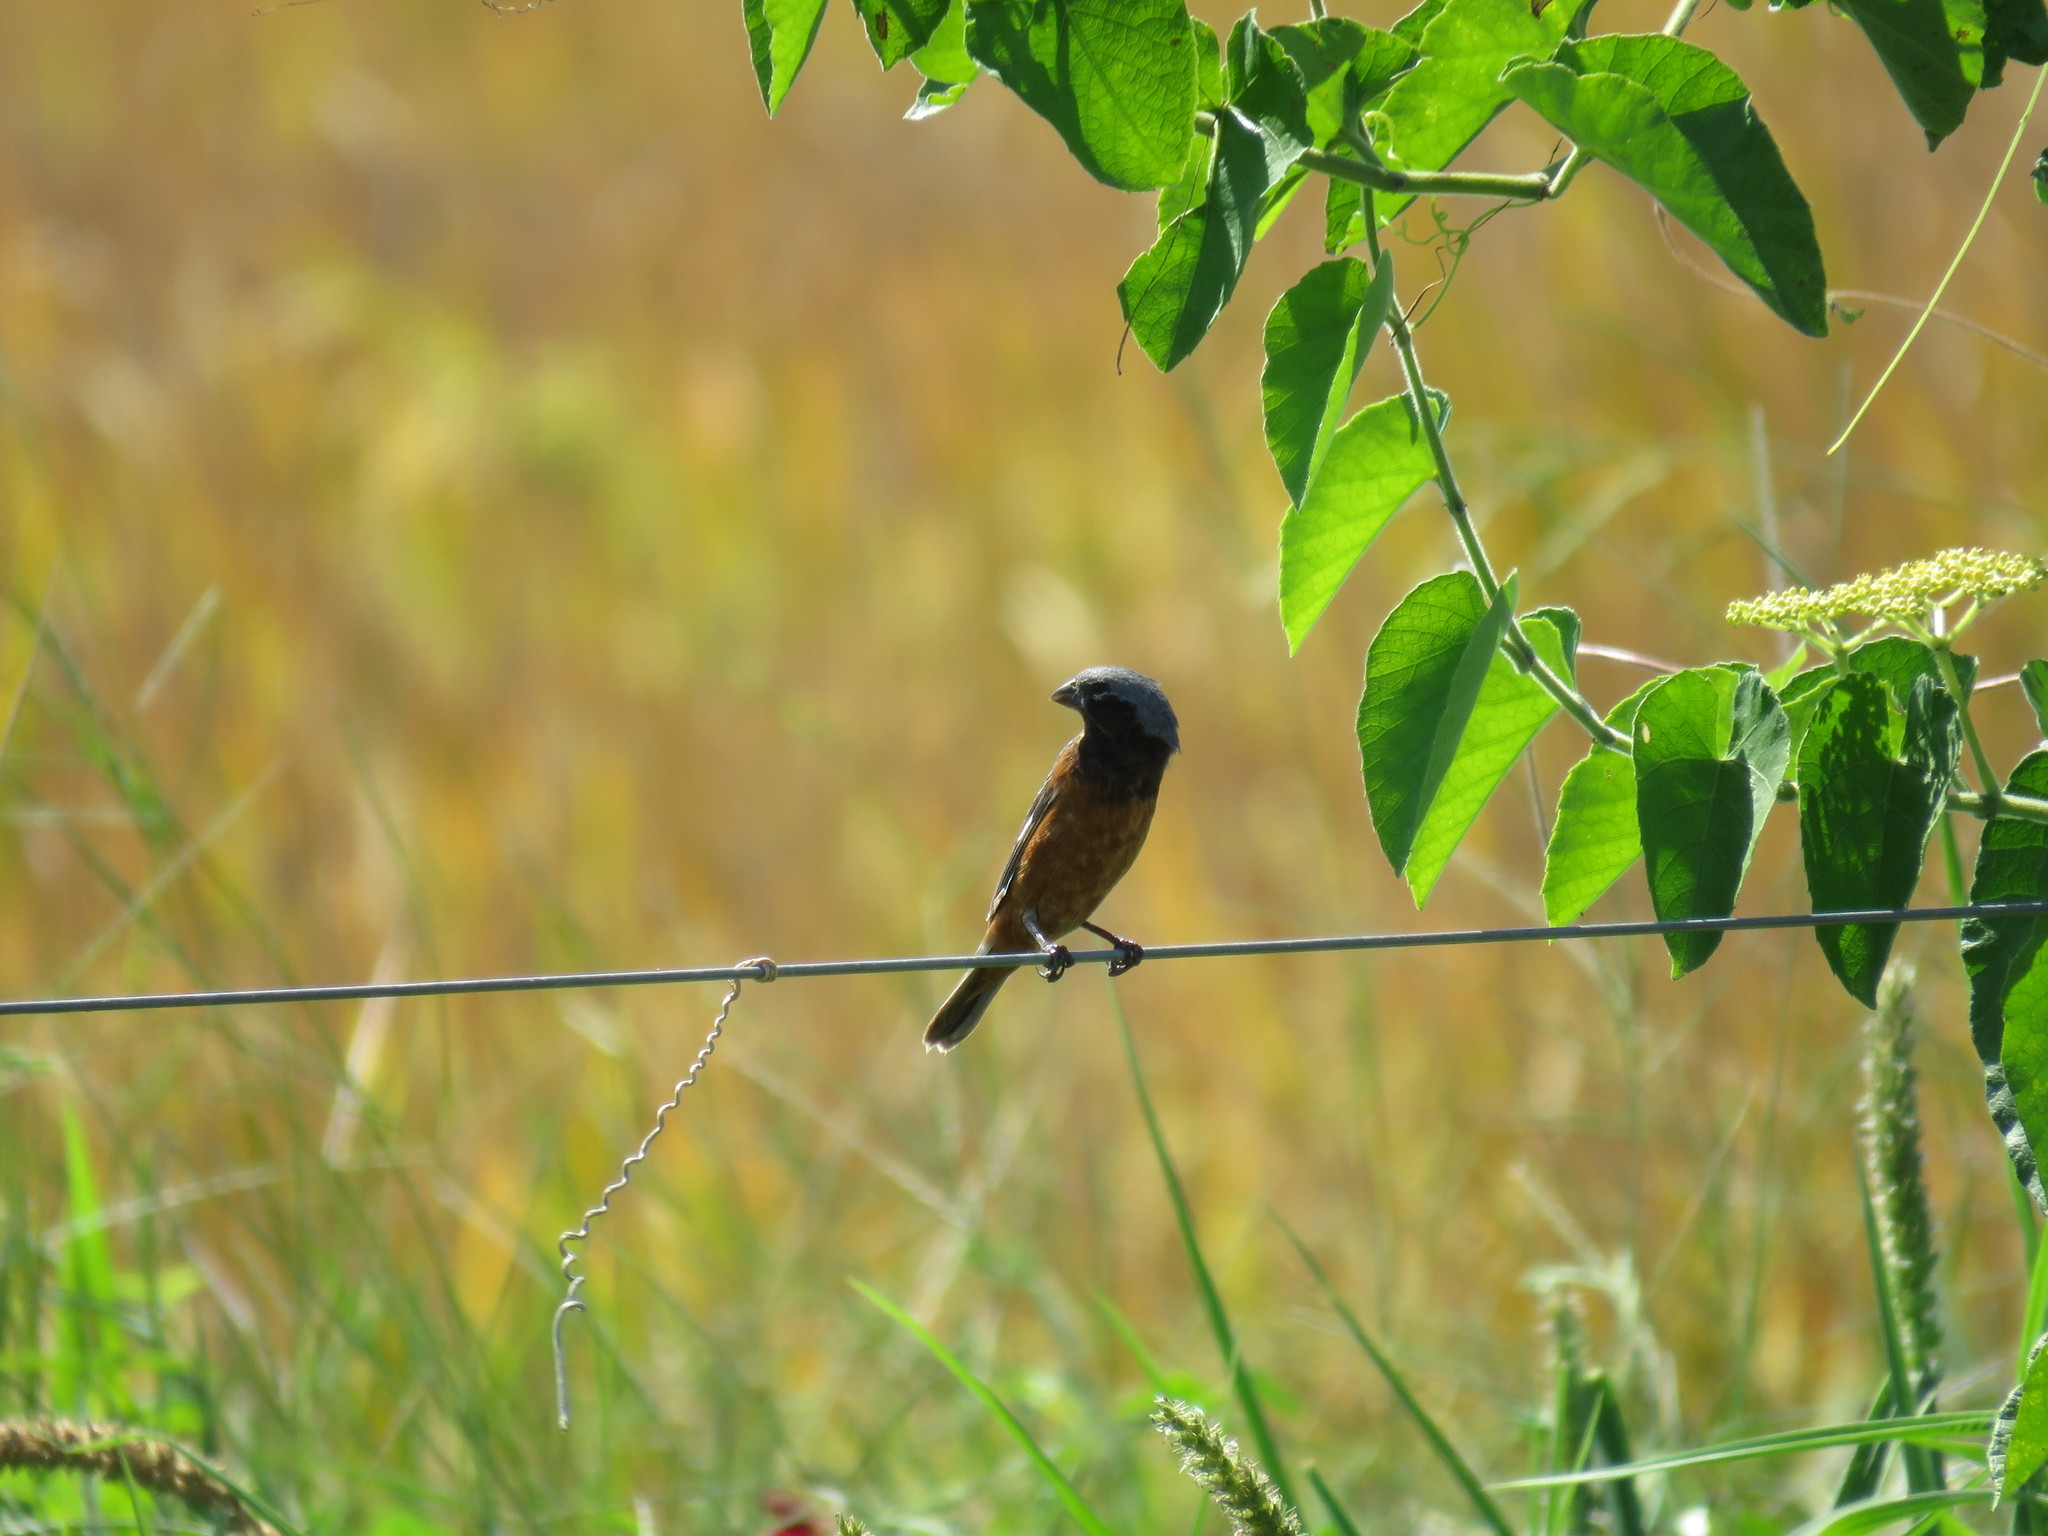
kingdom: Animalia
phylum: Chordata
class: Aves
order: Passeriformes
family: Thraupidae
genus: Sporophila
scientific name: Sporophila ruficollis
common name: Dark-throated seedeater
